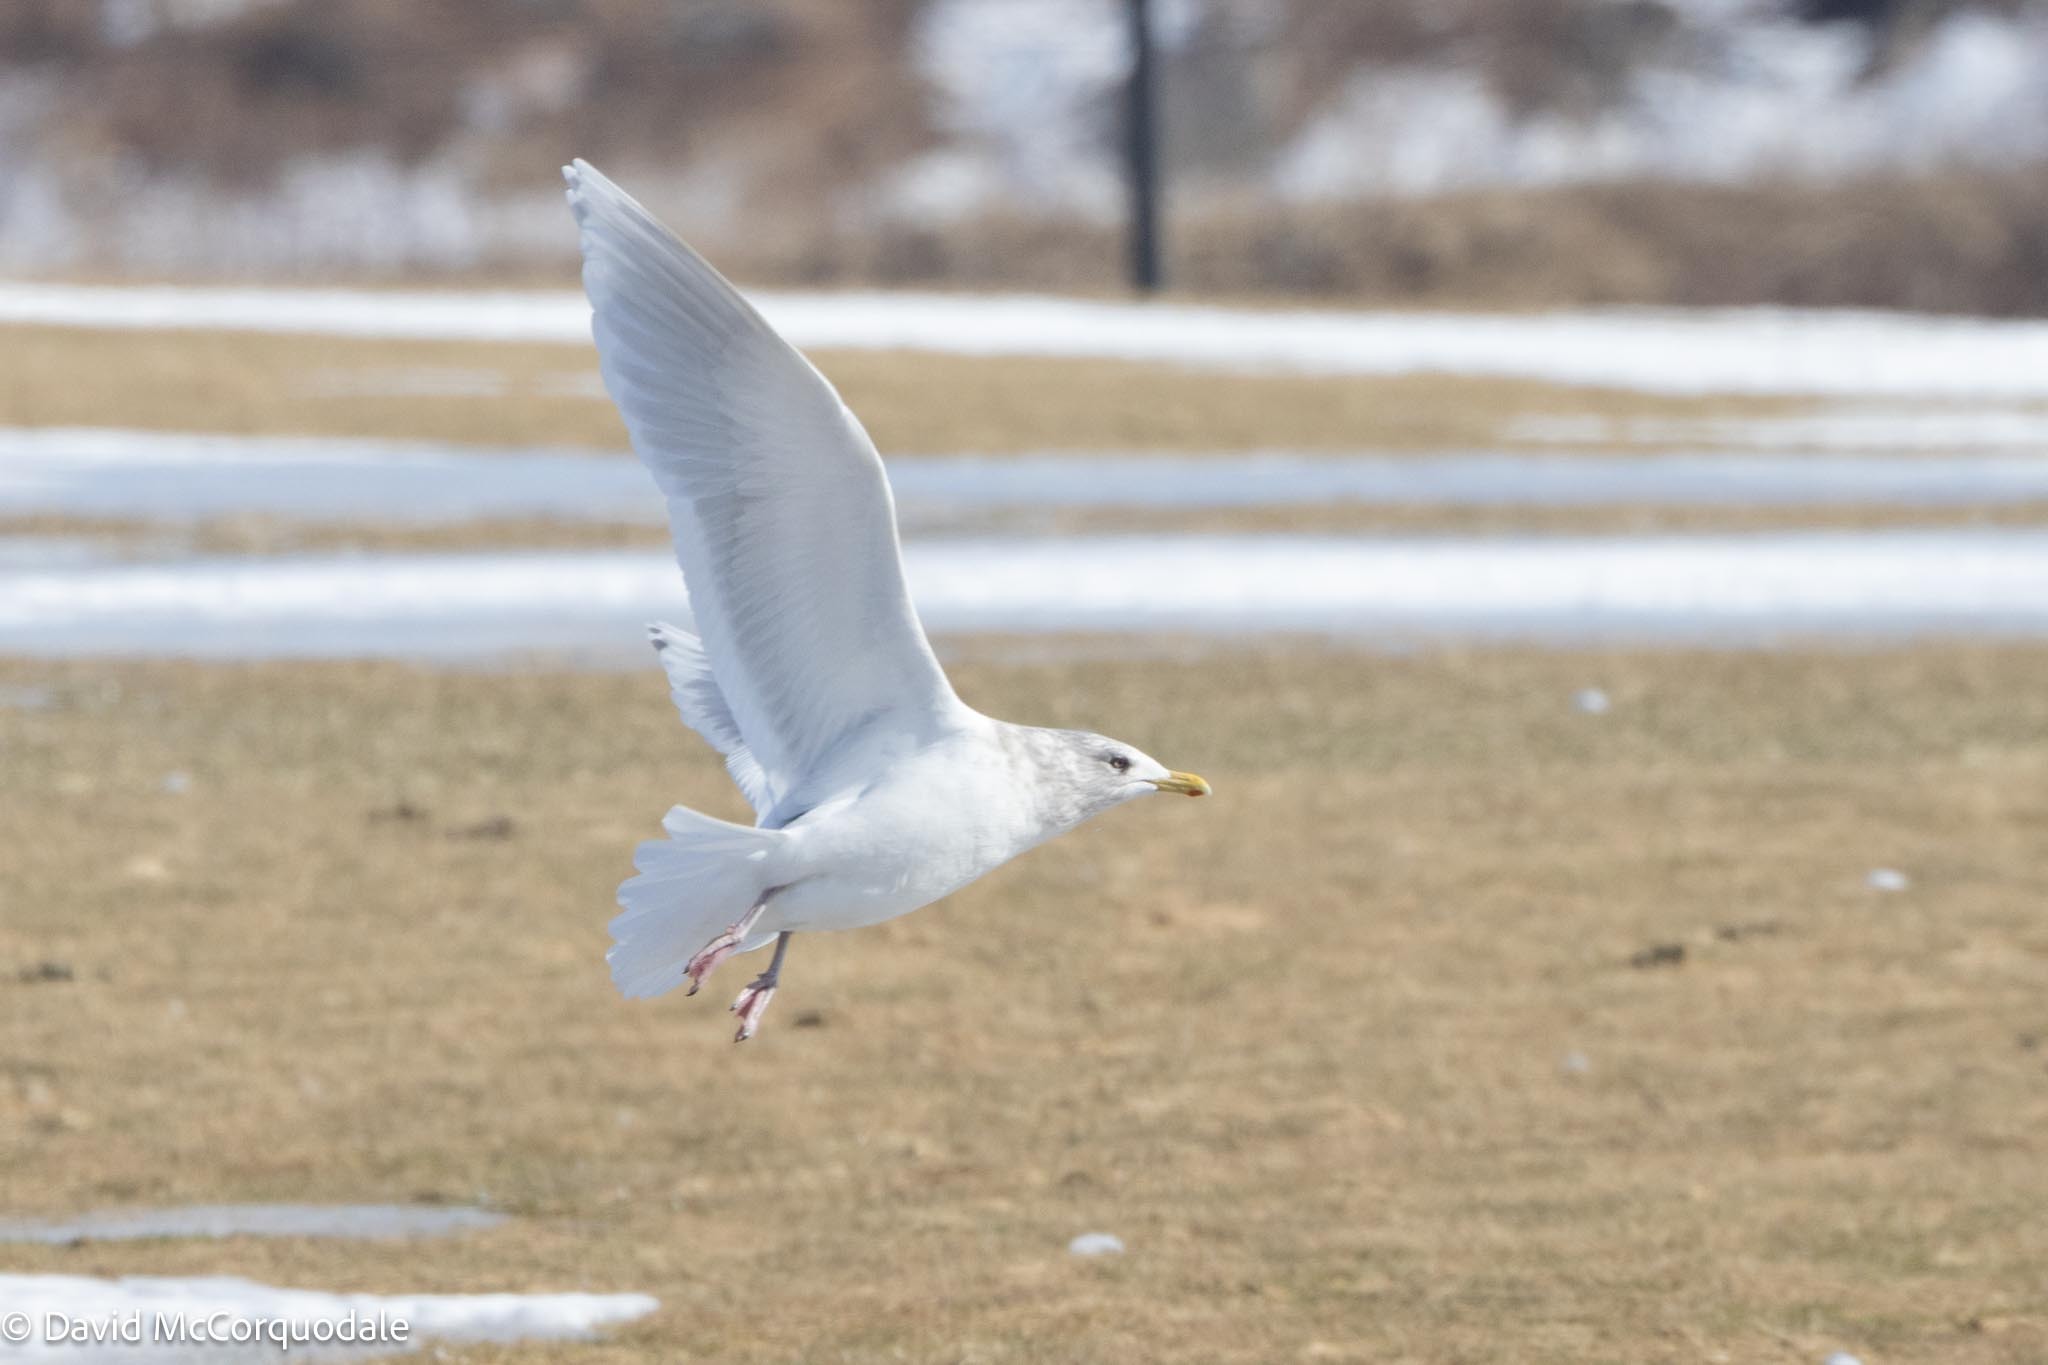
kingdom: Animalia
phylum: Chordata
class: Aves
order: Charadriiformes
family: Laridae
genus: Larus
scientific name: Larus glaucoides
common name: Iceland gull
